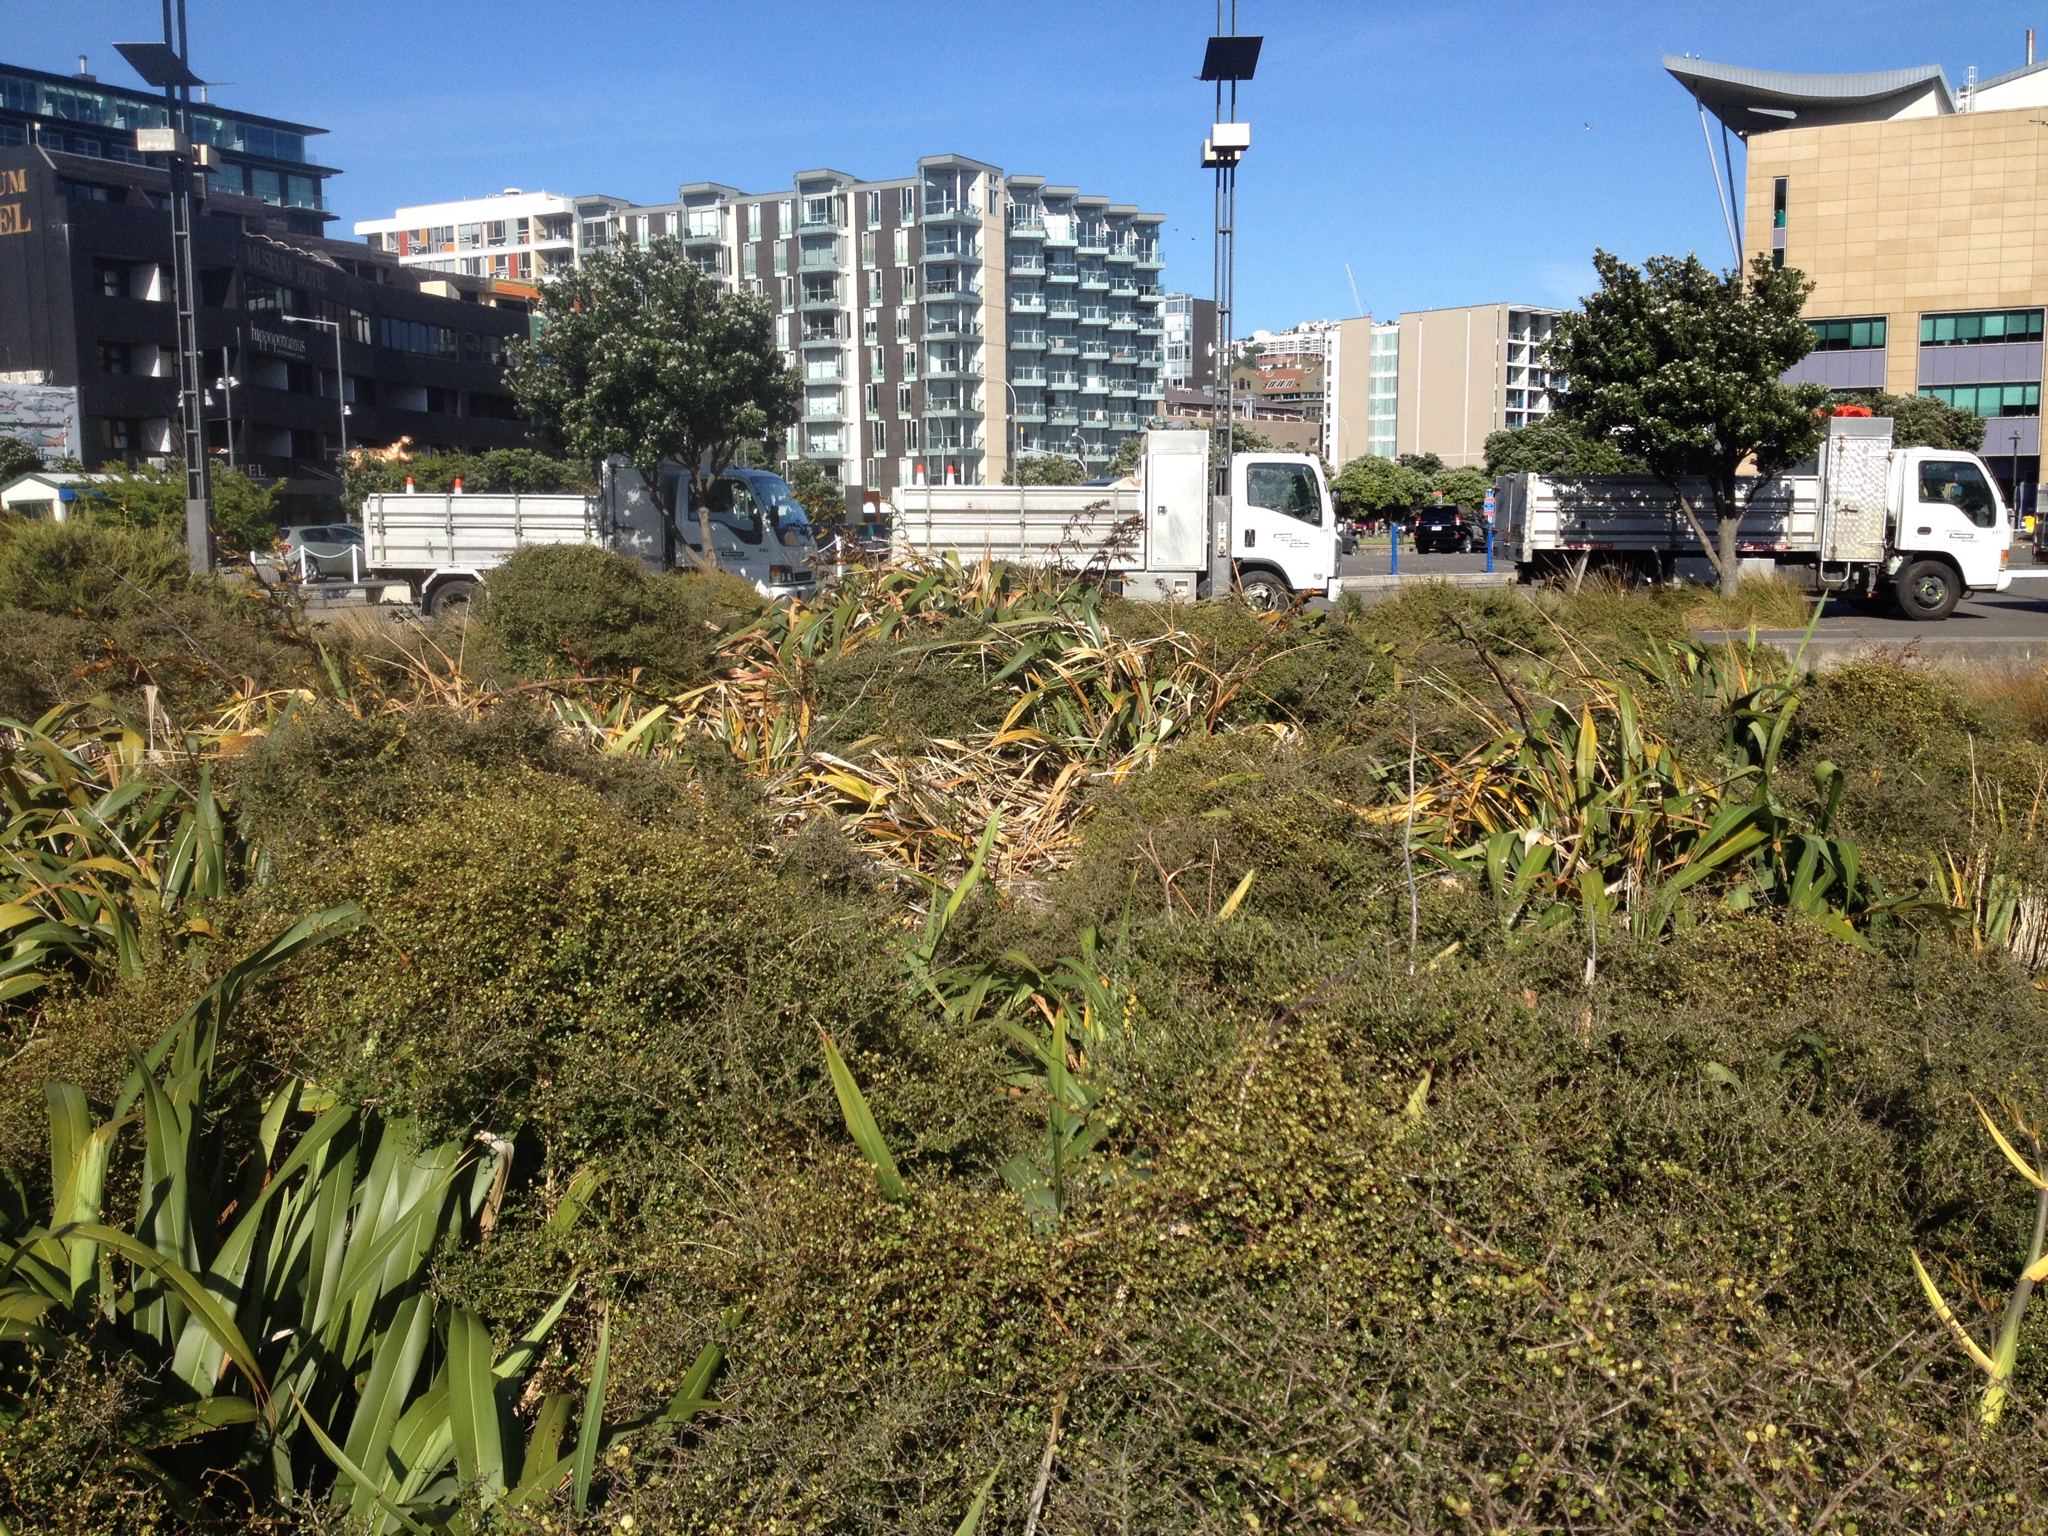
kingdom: Plantae
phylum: Tracheophyta
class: Liliopsida
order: Asparagales
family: Asphodelaceae
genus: Phormium
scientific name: Phormium colensoi
